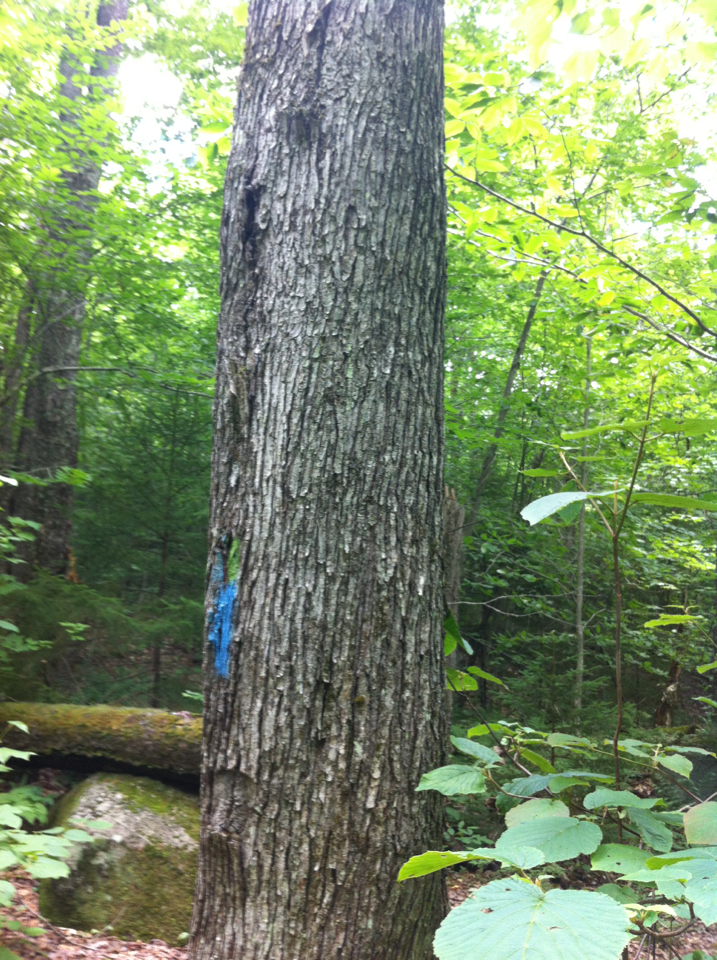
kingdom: Plantae
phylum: Tracheophyta
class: Magnoliopsida
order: Sapindales
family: Sapindaceae
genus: Acer
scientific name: Acer rubrum
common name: Red maple
